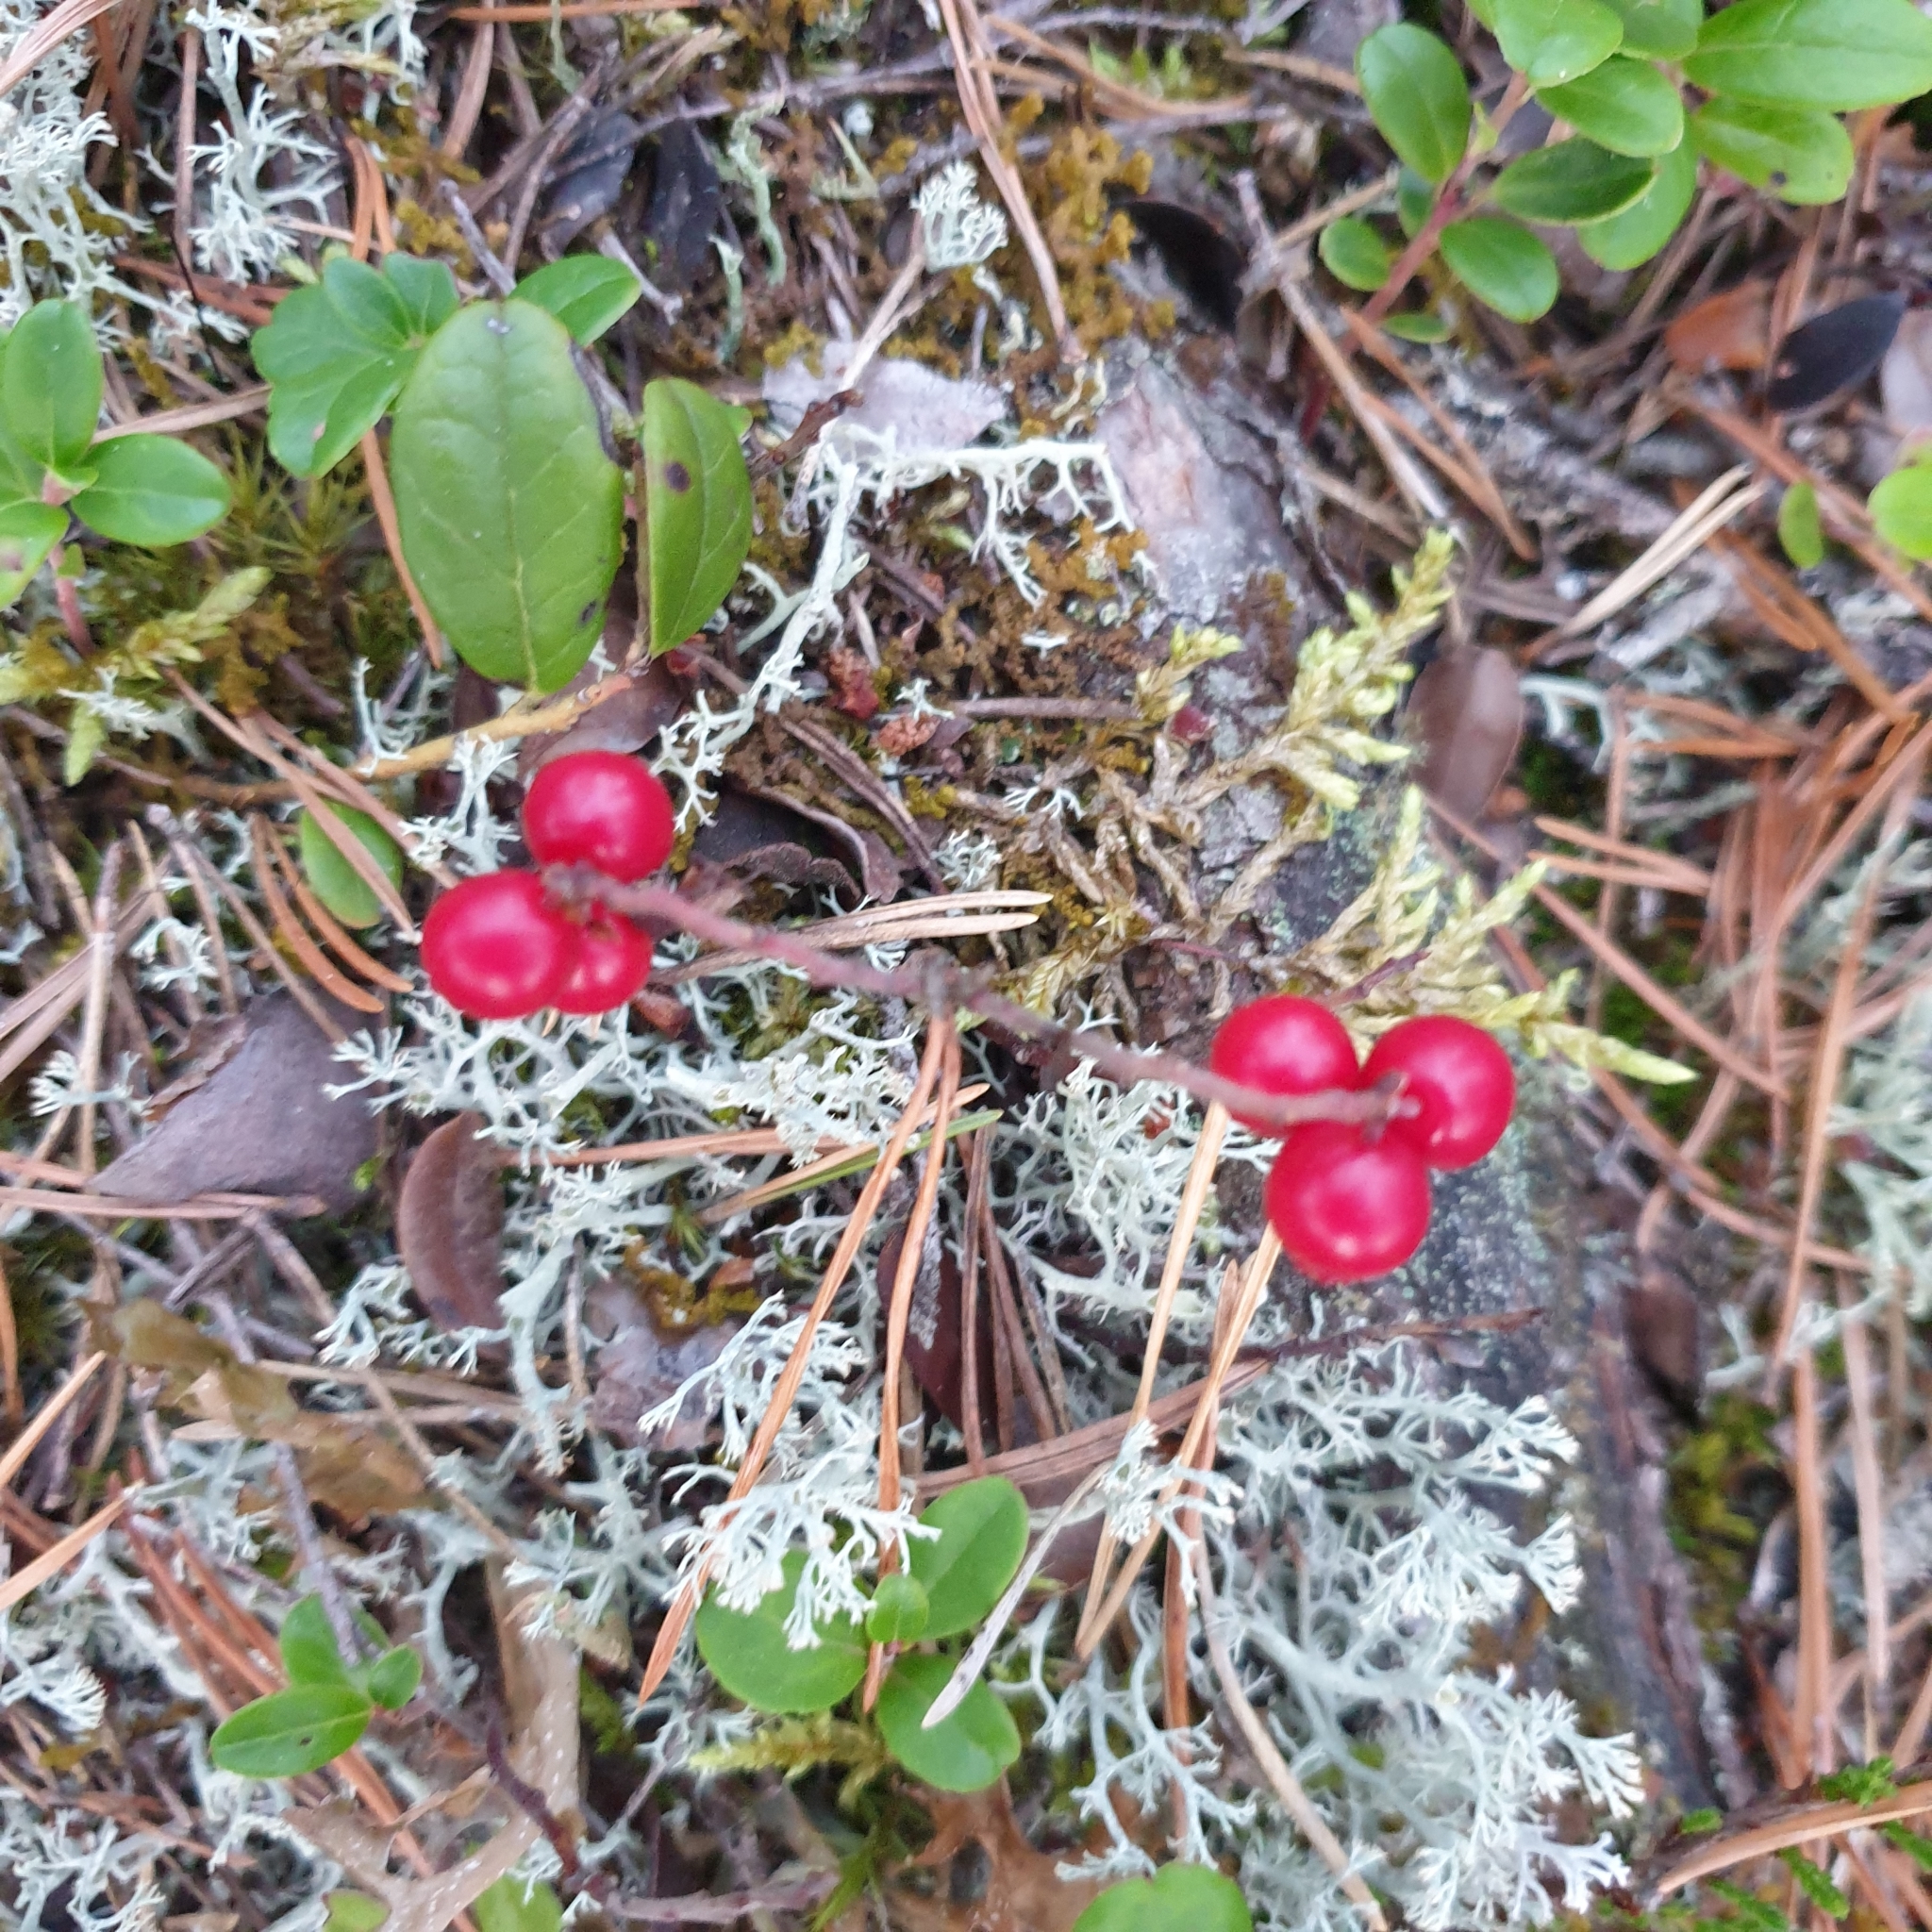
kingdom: Plantae
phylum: Tracheophyta
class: Magnoliopsida
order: Ericales
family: Ericaceae
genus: Vaccinium
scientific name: Vaccinium vitis-idaea
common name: Cowberry
